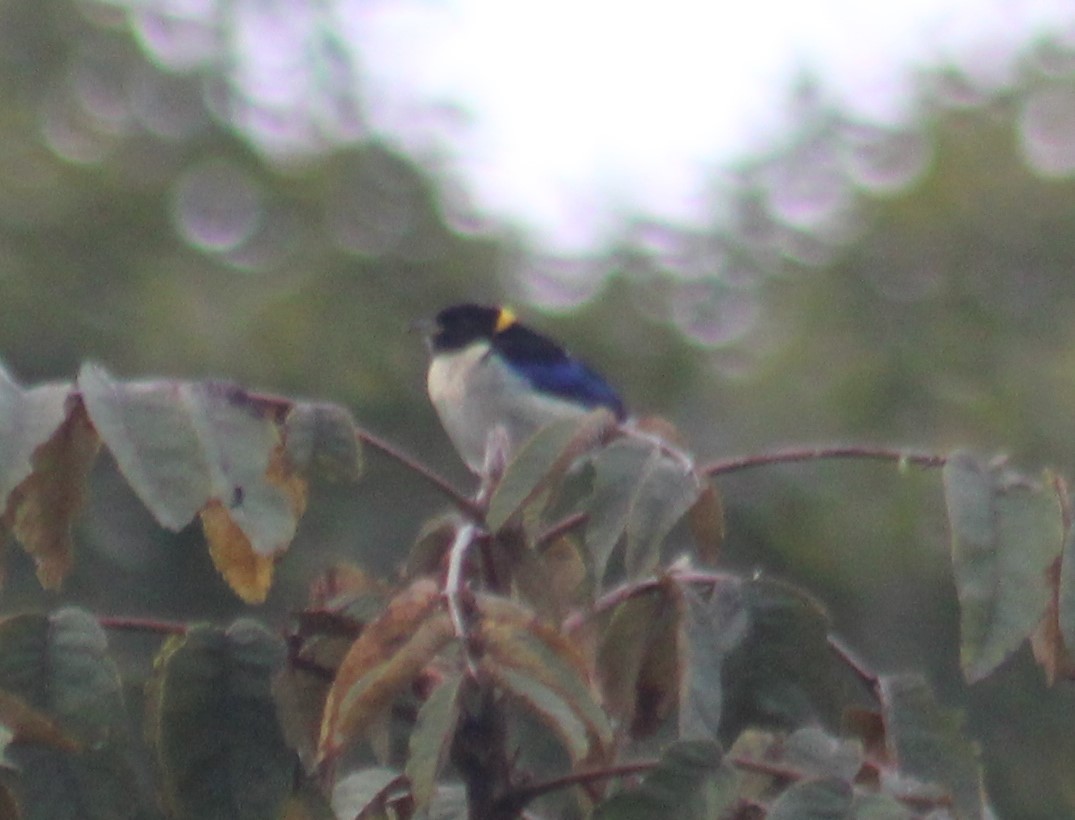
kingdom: Animalia
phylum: Chordata
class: Aves
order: Passeriformes
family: Thraupidae
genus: Iridophanes
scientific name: Iridophanes pulcherrimus
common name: Golden-collared honeycreeper
